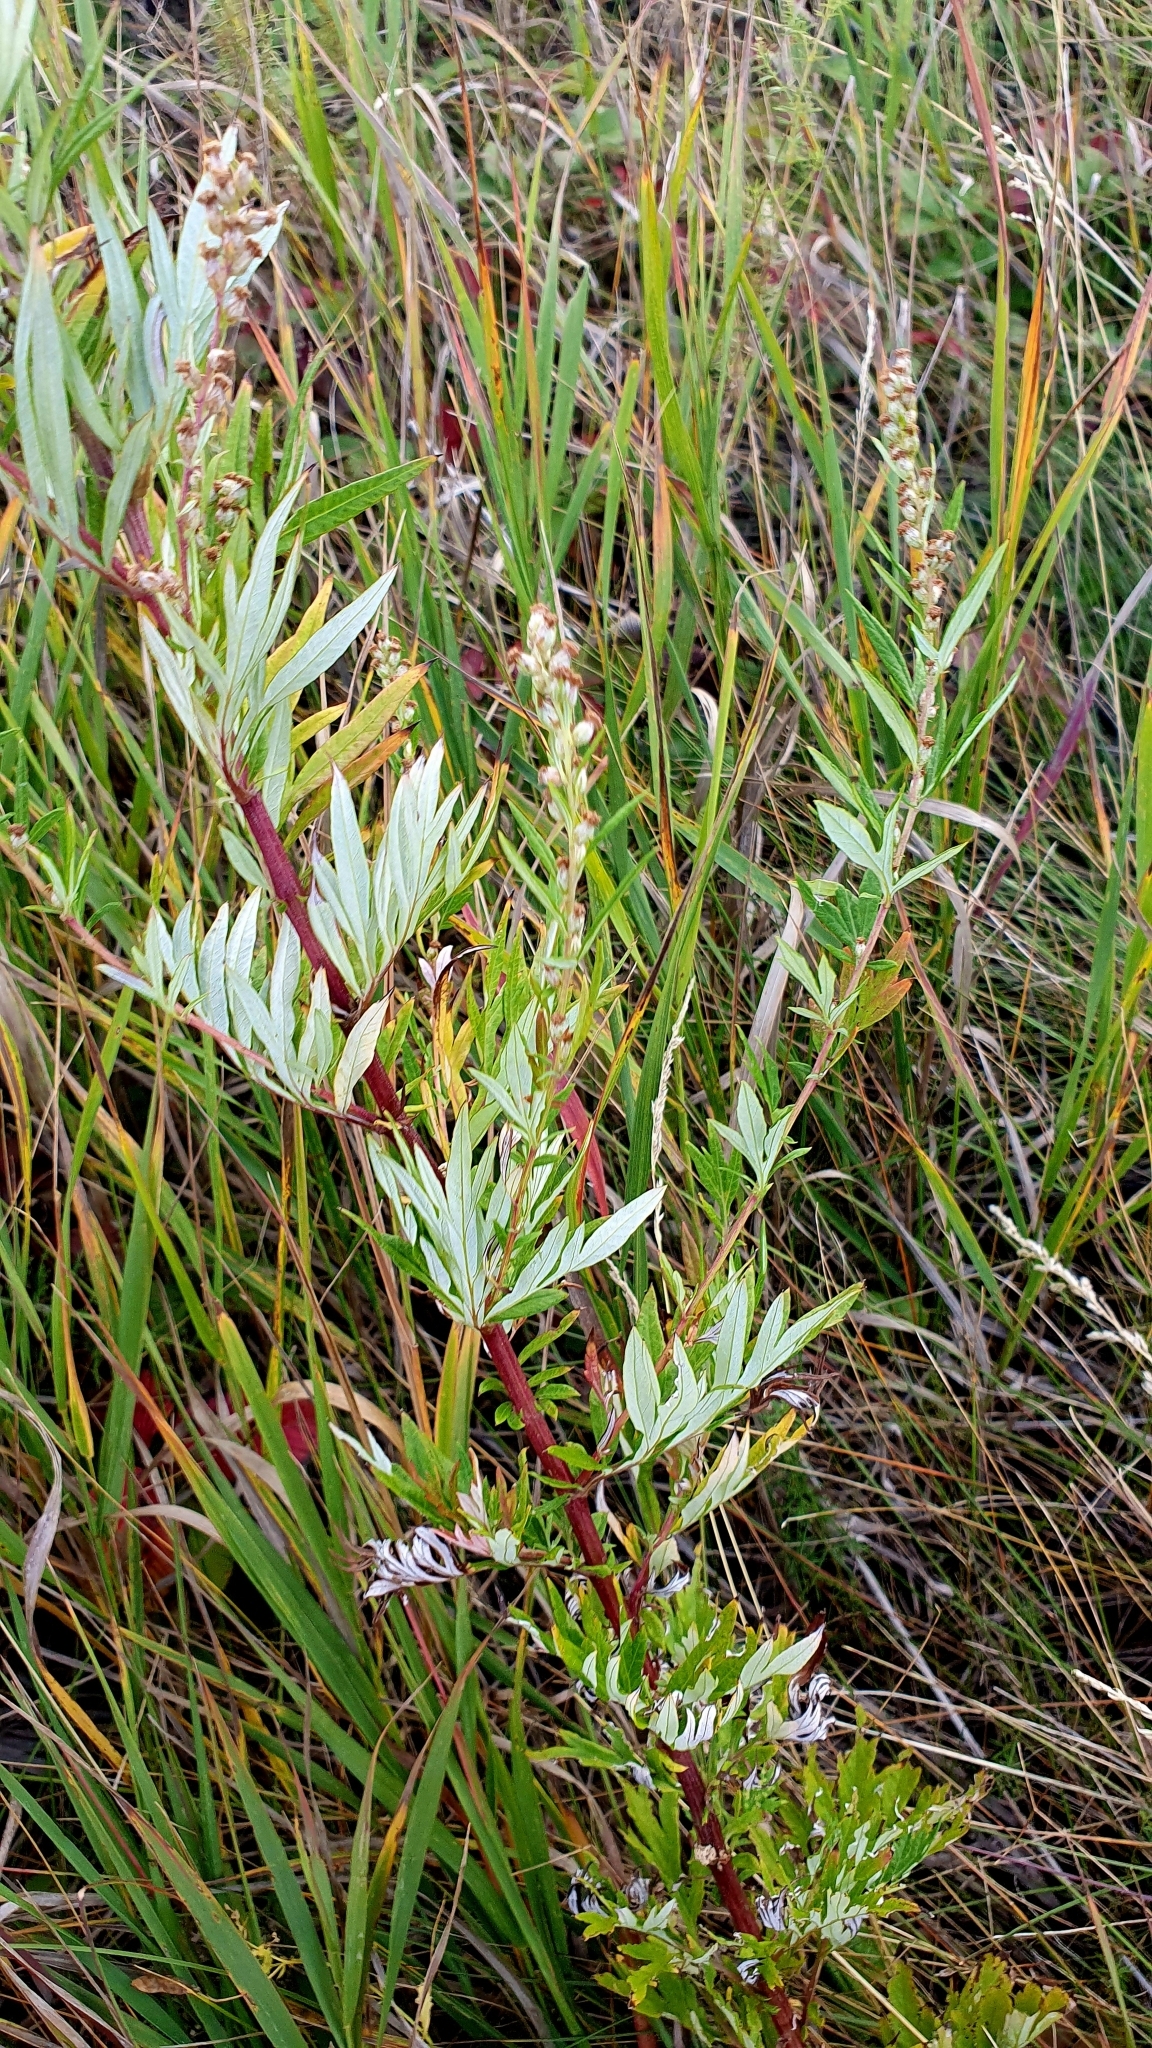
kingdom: Plantae
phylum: Tracheophyta
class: Magnoliopsida
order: Asterales
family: Asteraceae
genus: Artemisia
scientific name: Artemisia vulgaris
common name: Mugwort
